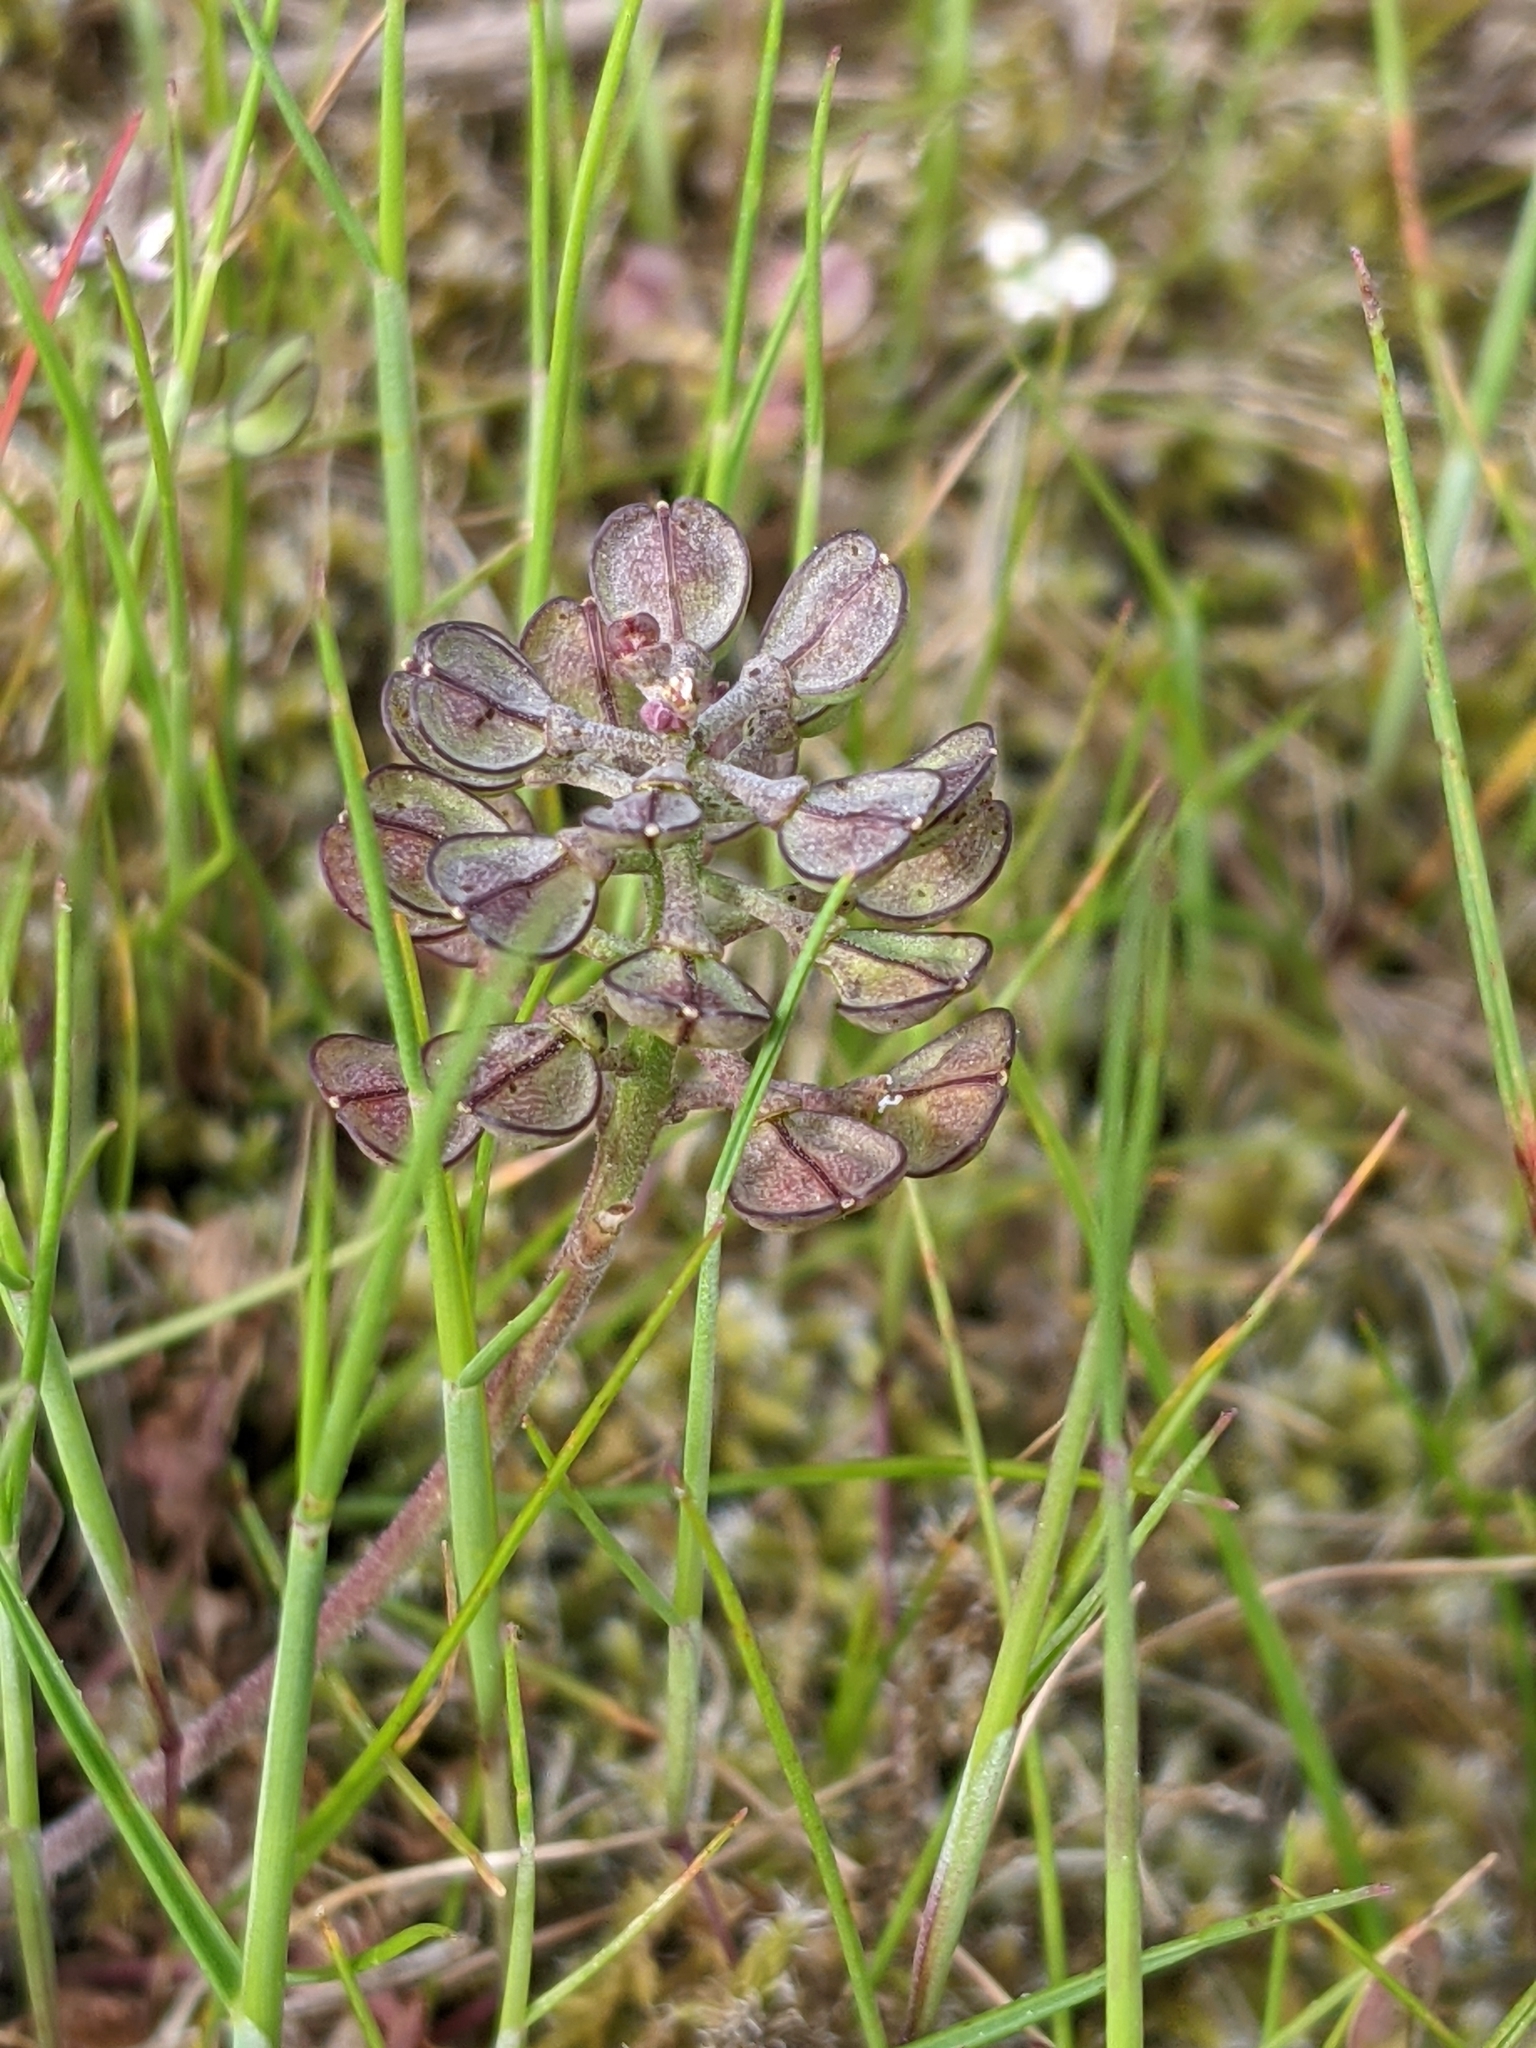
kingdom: Plantae
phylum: Tracheophyta
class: Magnoliopsida
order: Brassicales
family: Brassicaceae
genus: Teesdalia
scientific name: Teesdalia nudicaulis
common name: Shepherd's cress
